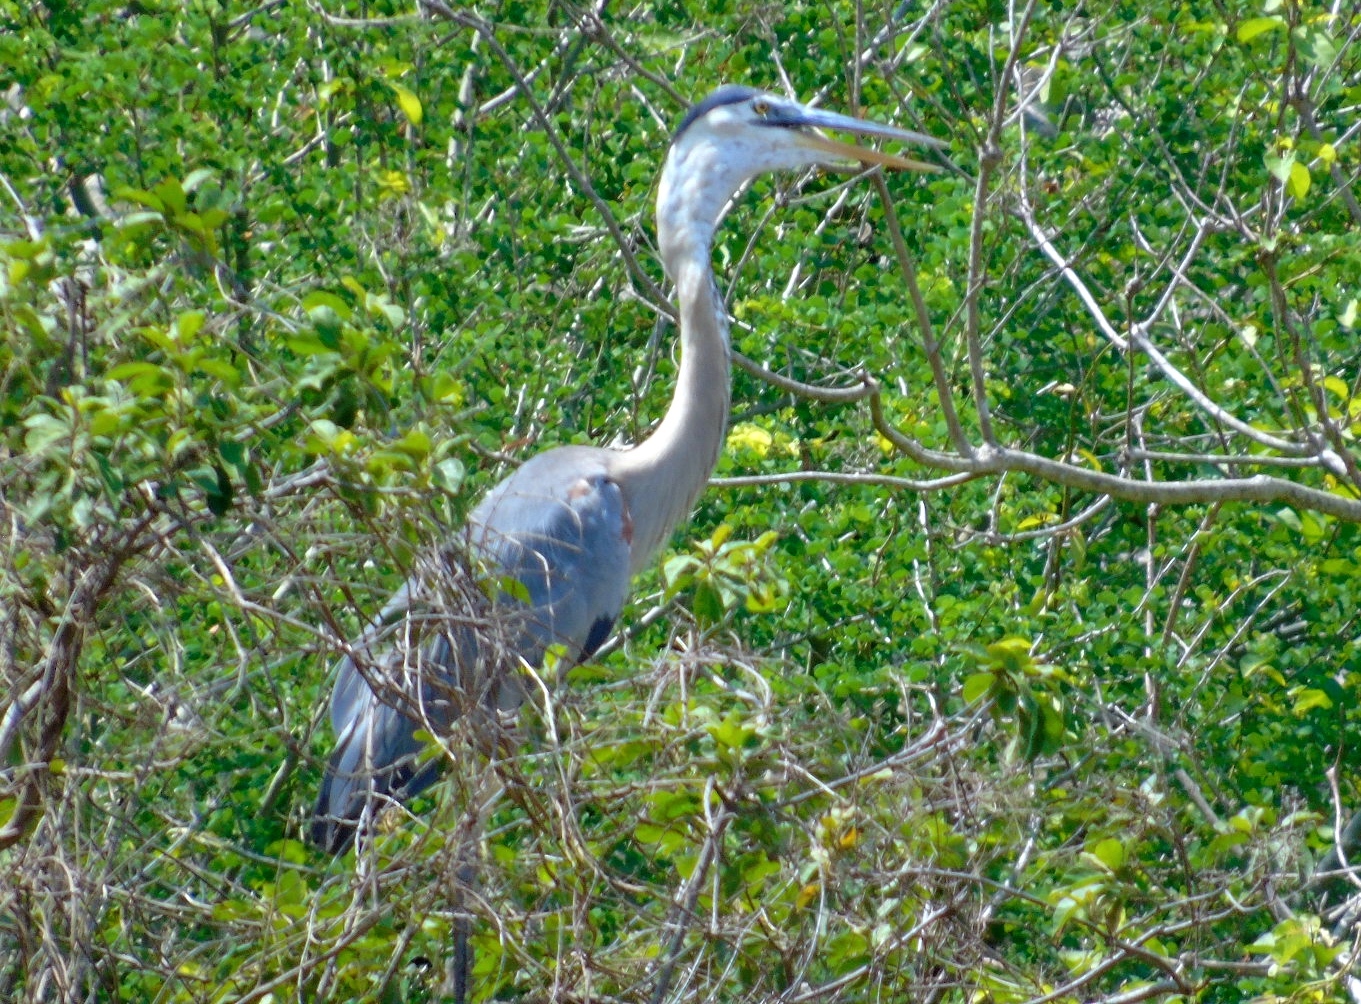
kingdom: Animalia
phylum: Chordata
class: Aves
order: Pelecaniformes
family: Ardeidae
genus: Ardea
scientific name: Ardea herodias
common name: Great blue heron
